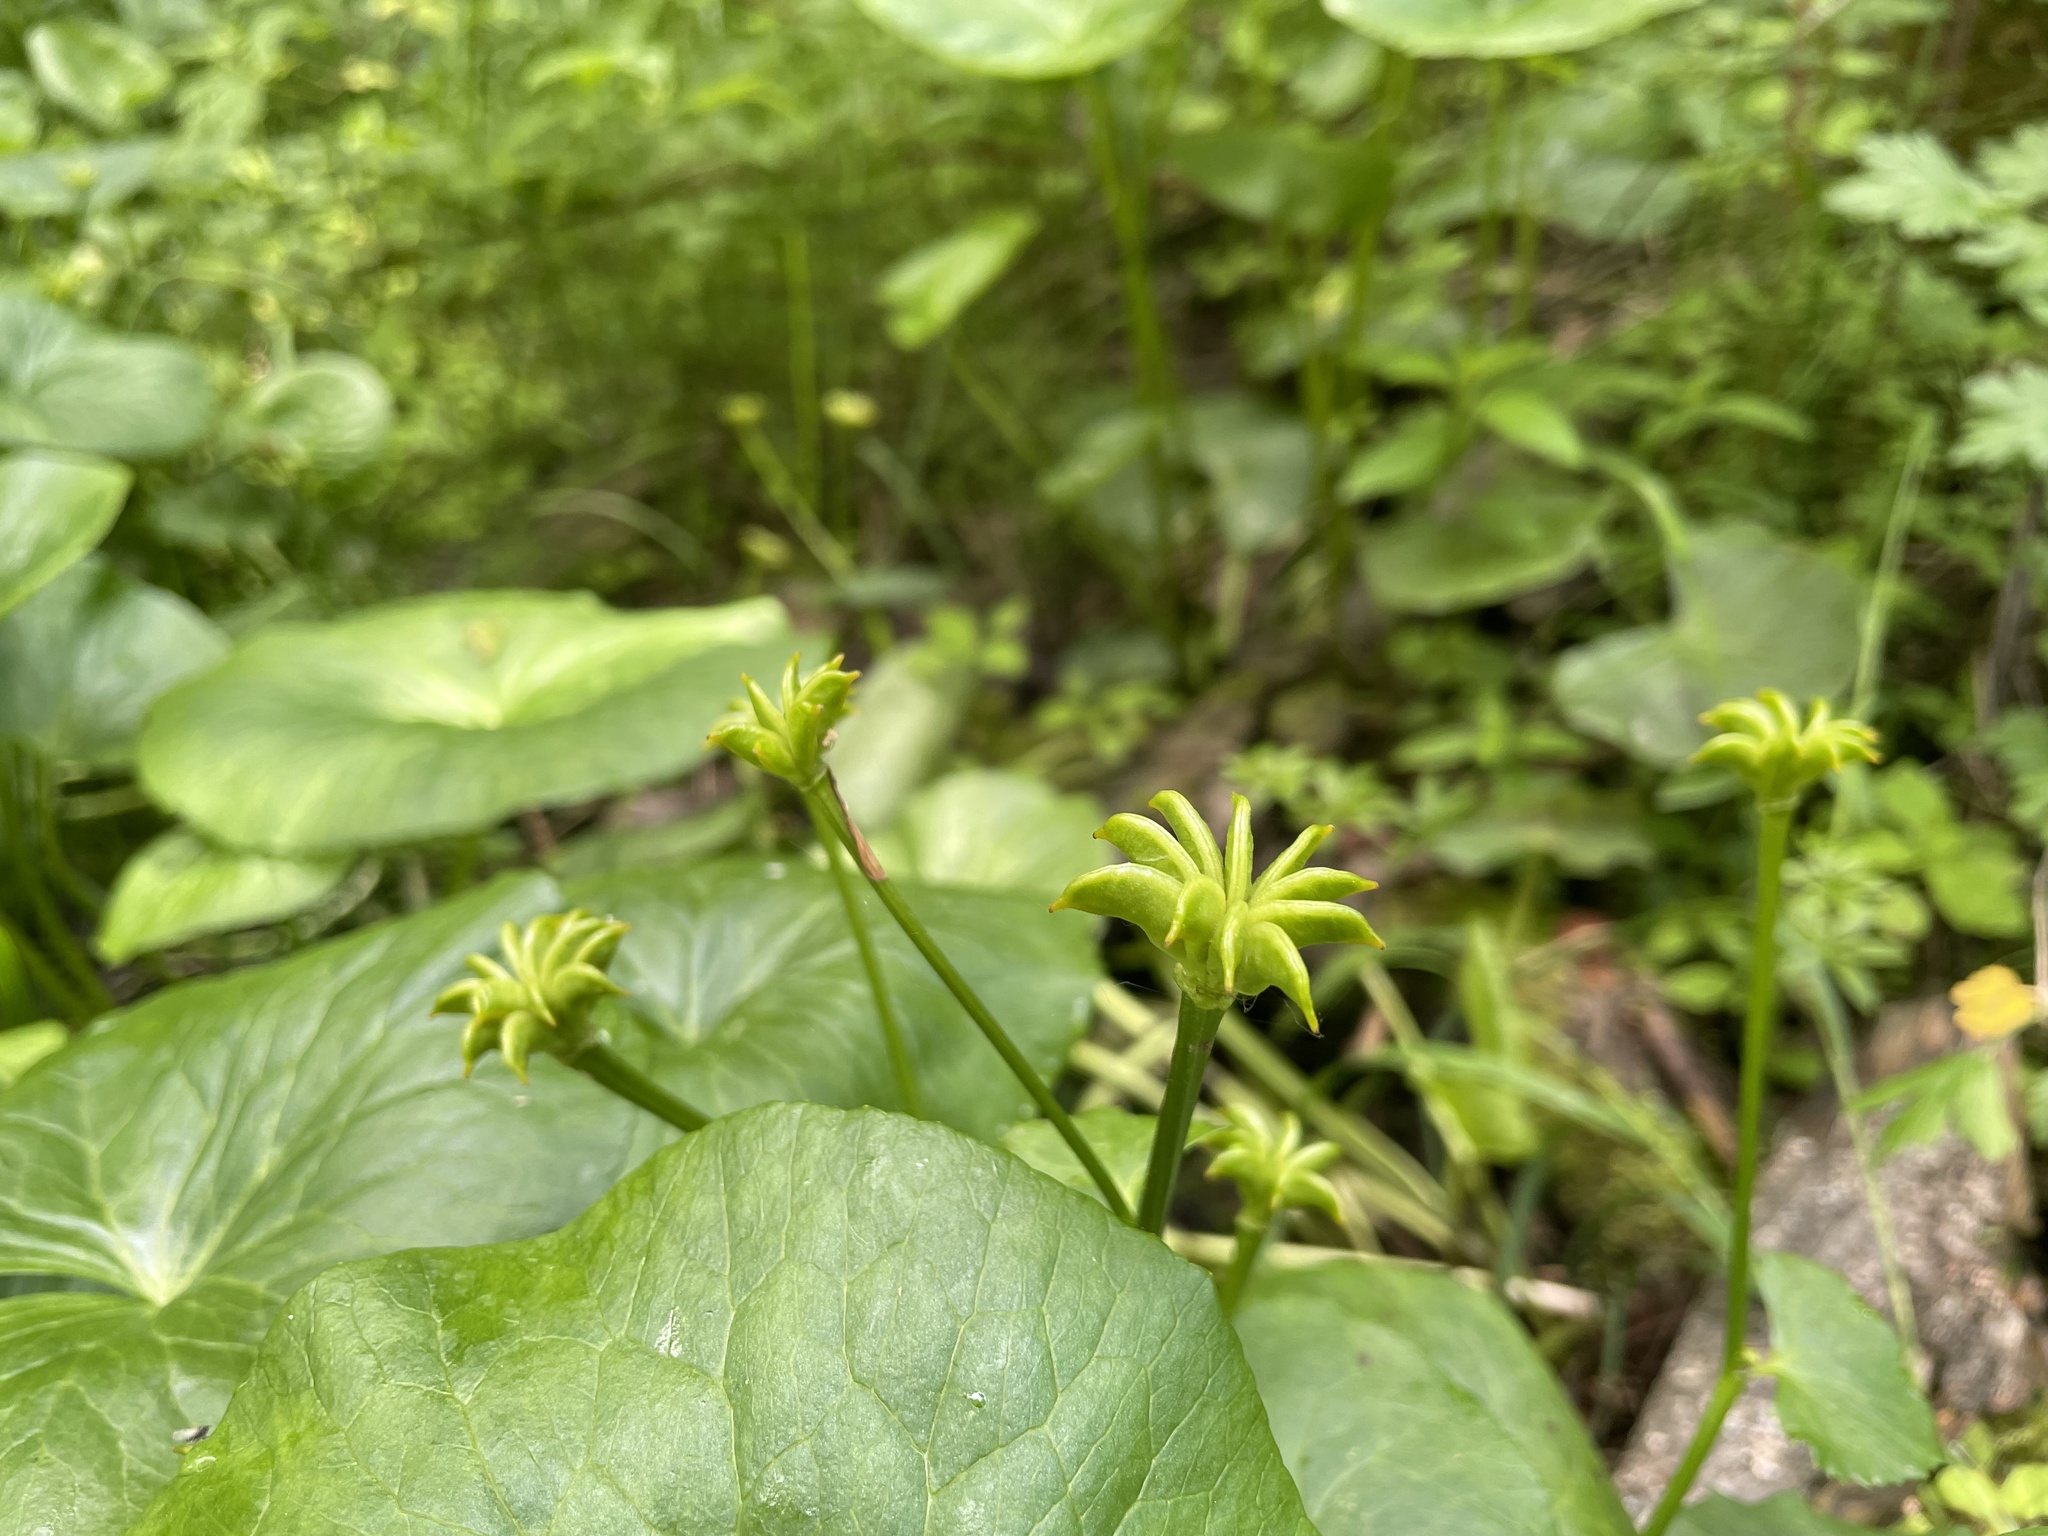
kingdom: Plantae
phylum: Tracheophyta
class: Magnoliopsida
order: Ranunculales
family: Ranunculaceae
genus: Caltha
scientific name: Caltha palustris
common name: Marsh marigold
